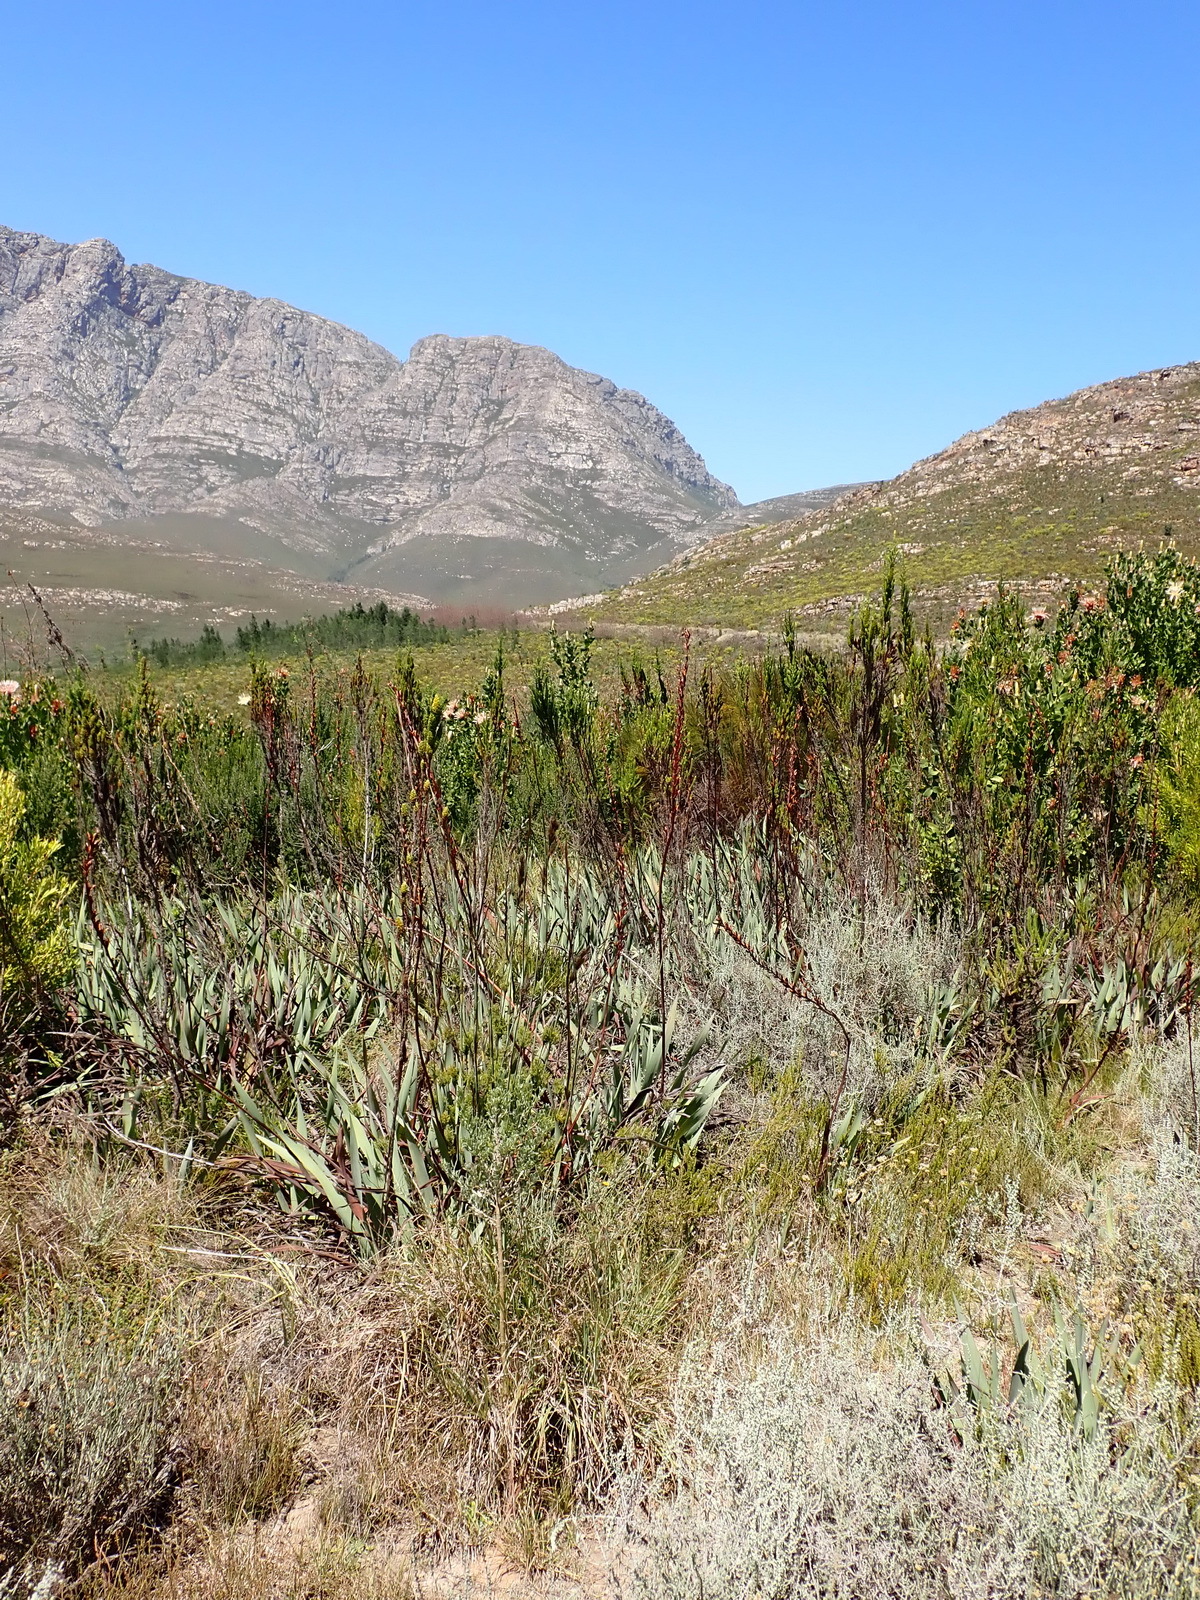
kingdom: Plantae
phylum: Tracheophyta
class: Liliopsida
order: Asparagales
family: Iridaceae
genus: Watsonia
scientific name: Watsonia fourcadei
